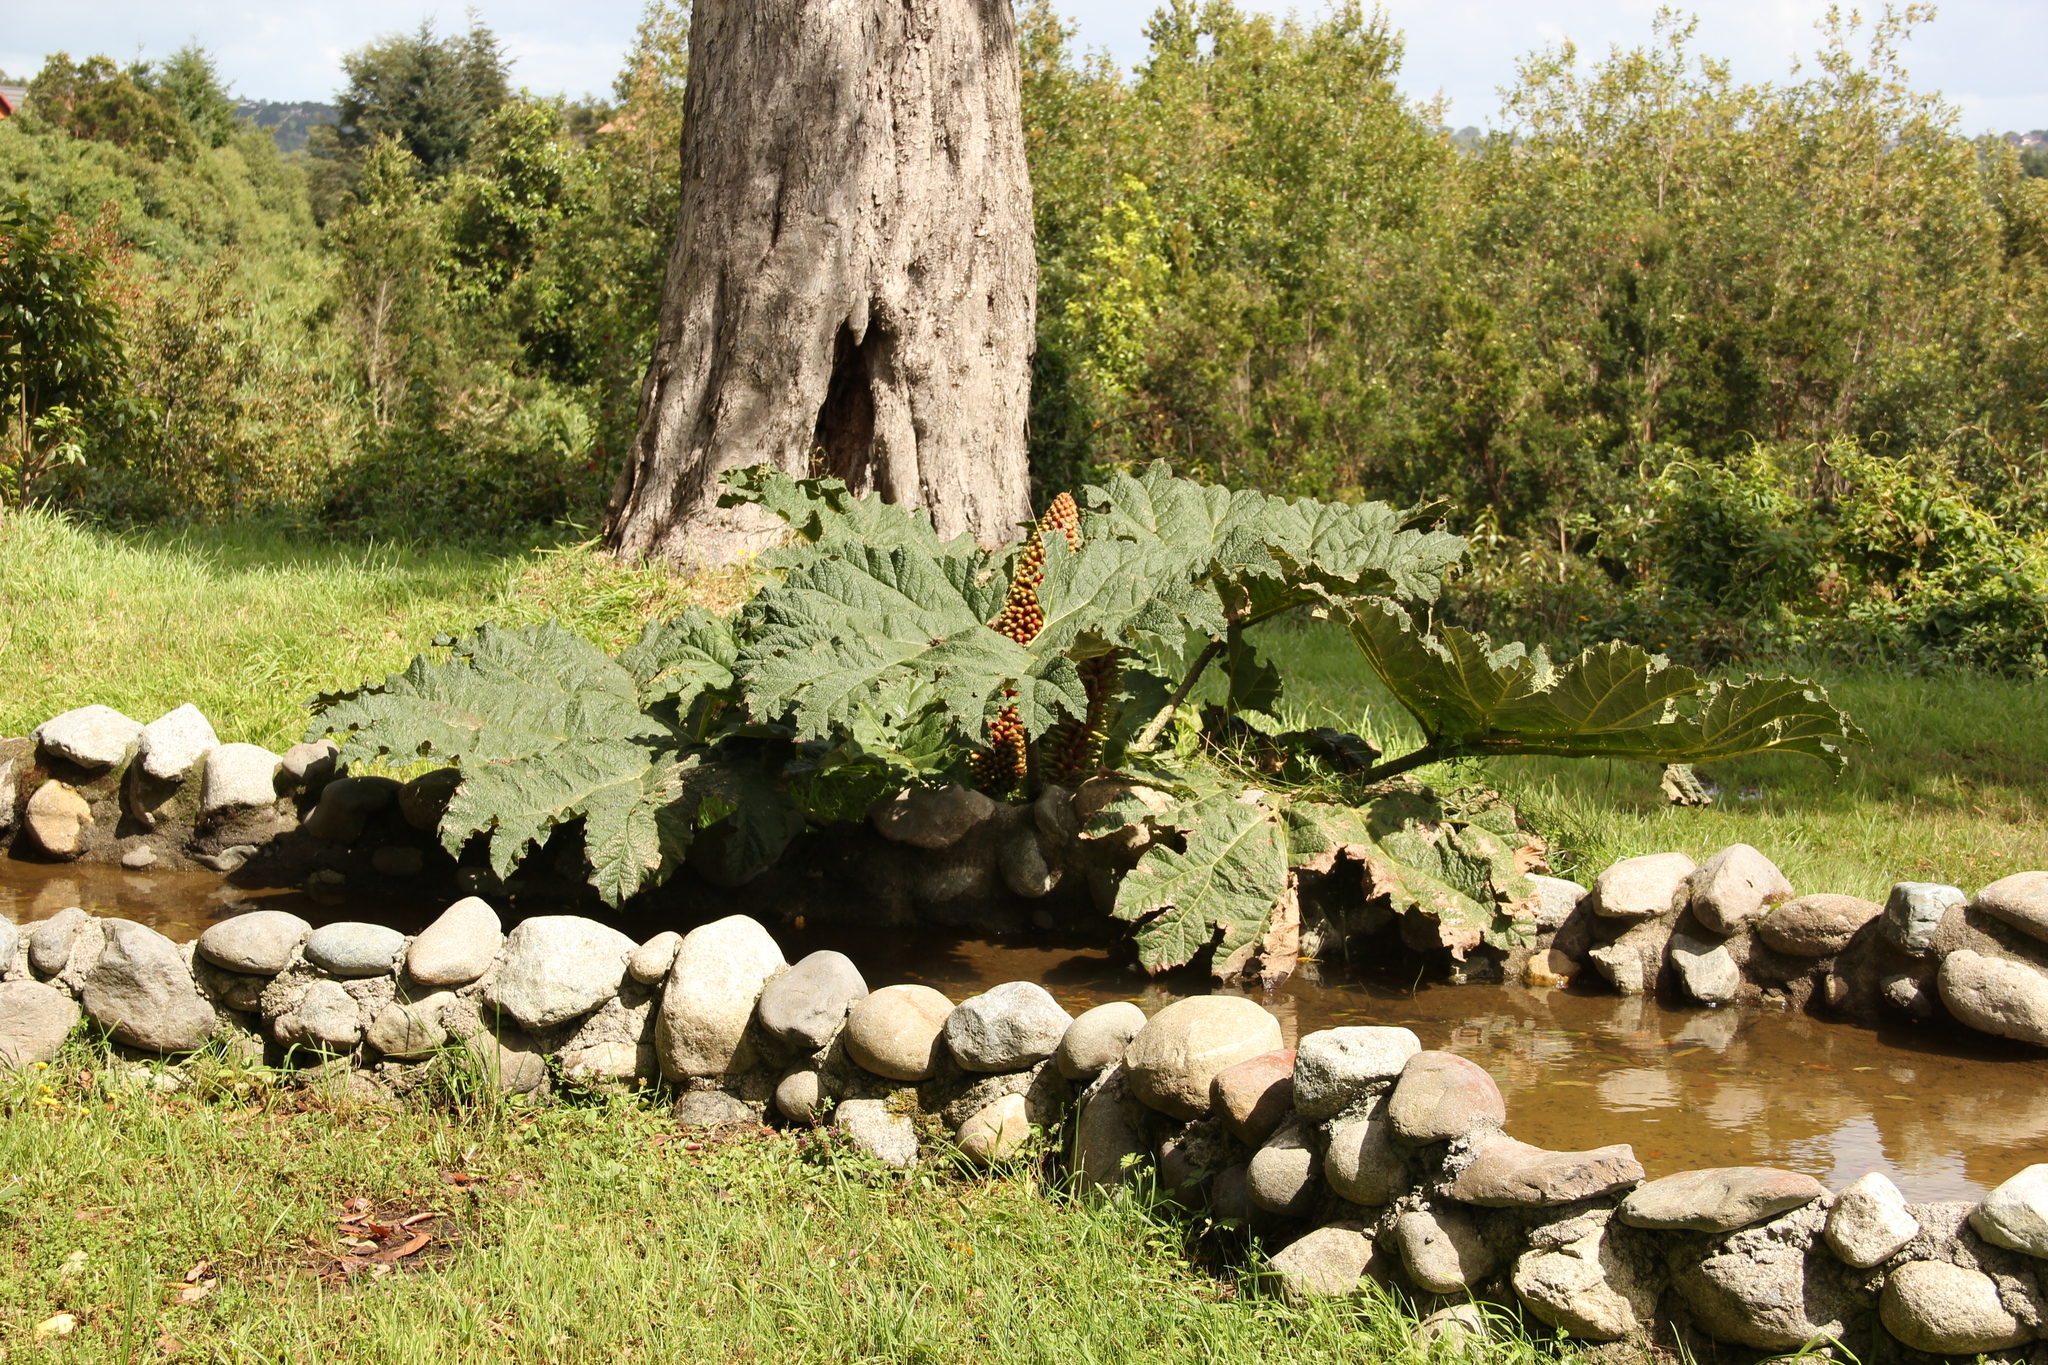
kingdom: Plantae
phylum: Tracheophyta
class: Magnoliopsida
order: Gunnerales
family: Gunneraceae
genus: Gunnera
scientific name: Gunnera tinctoria
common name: Giant-rhubarb
